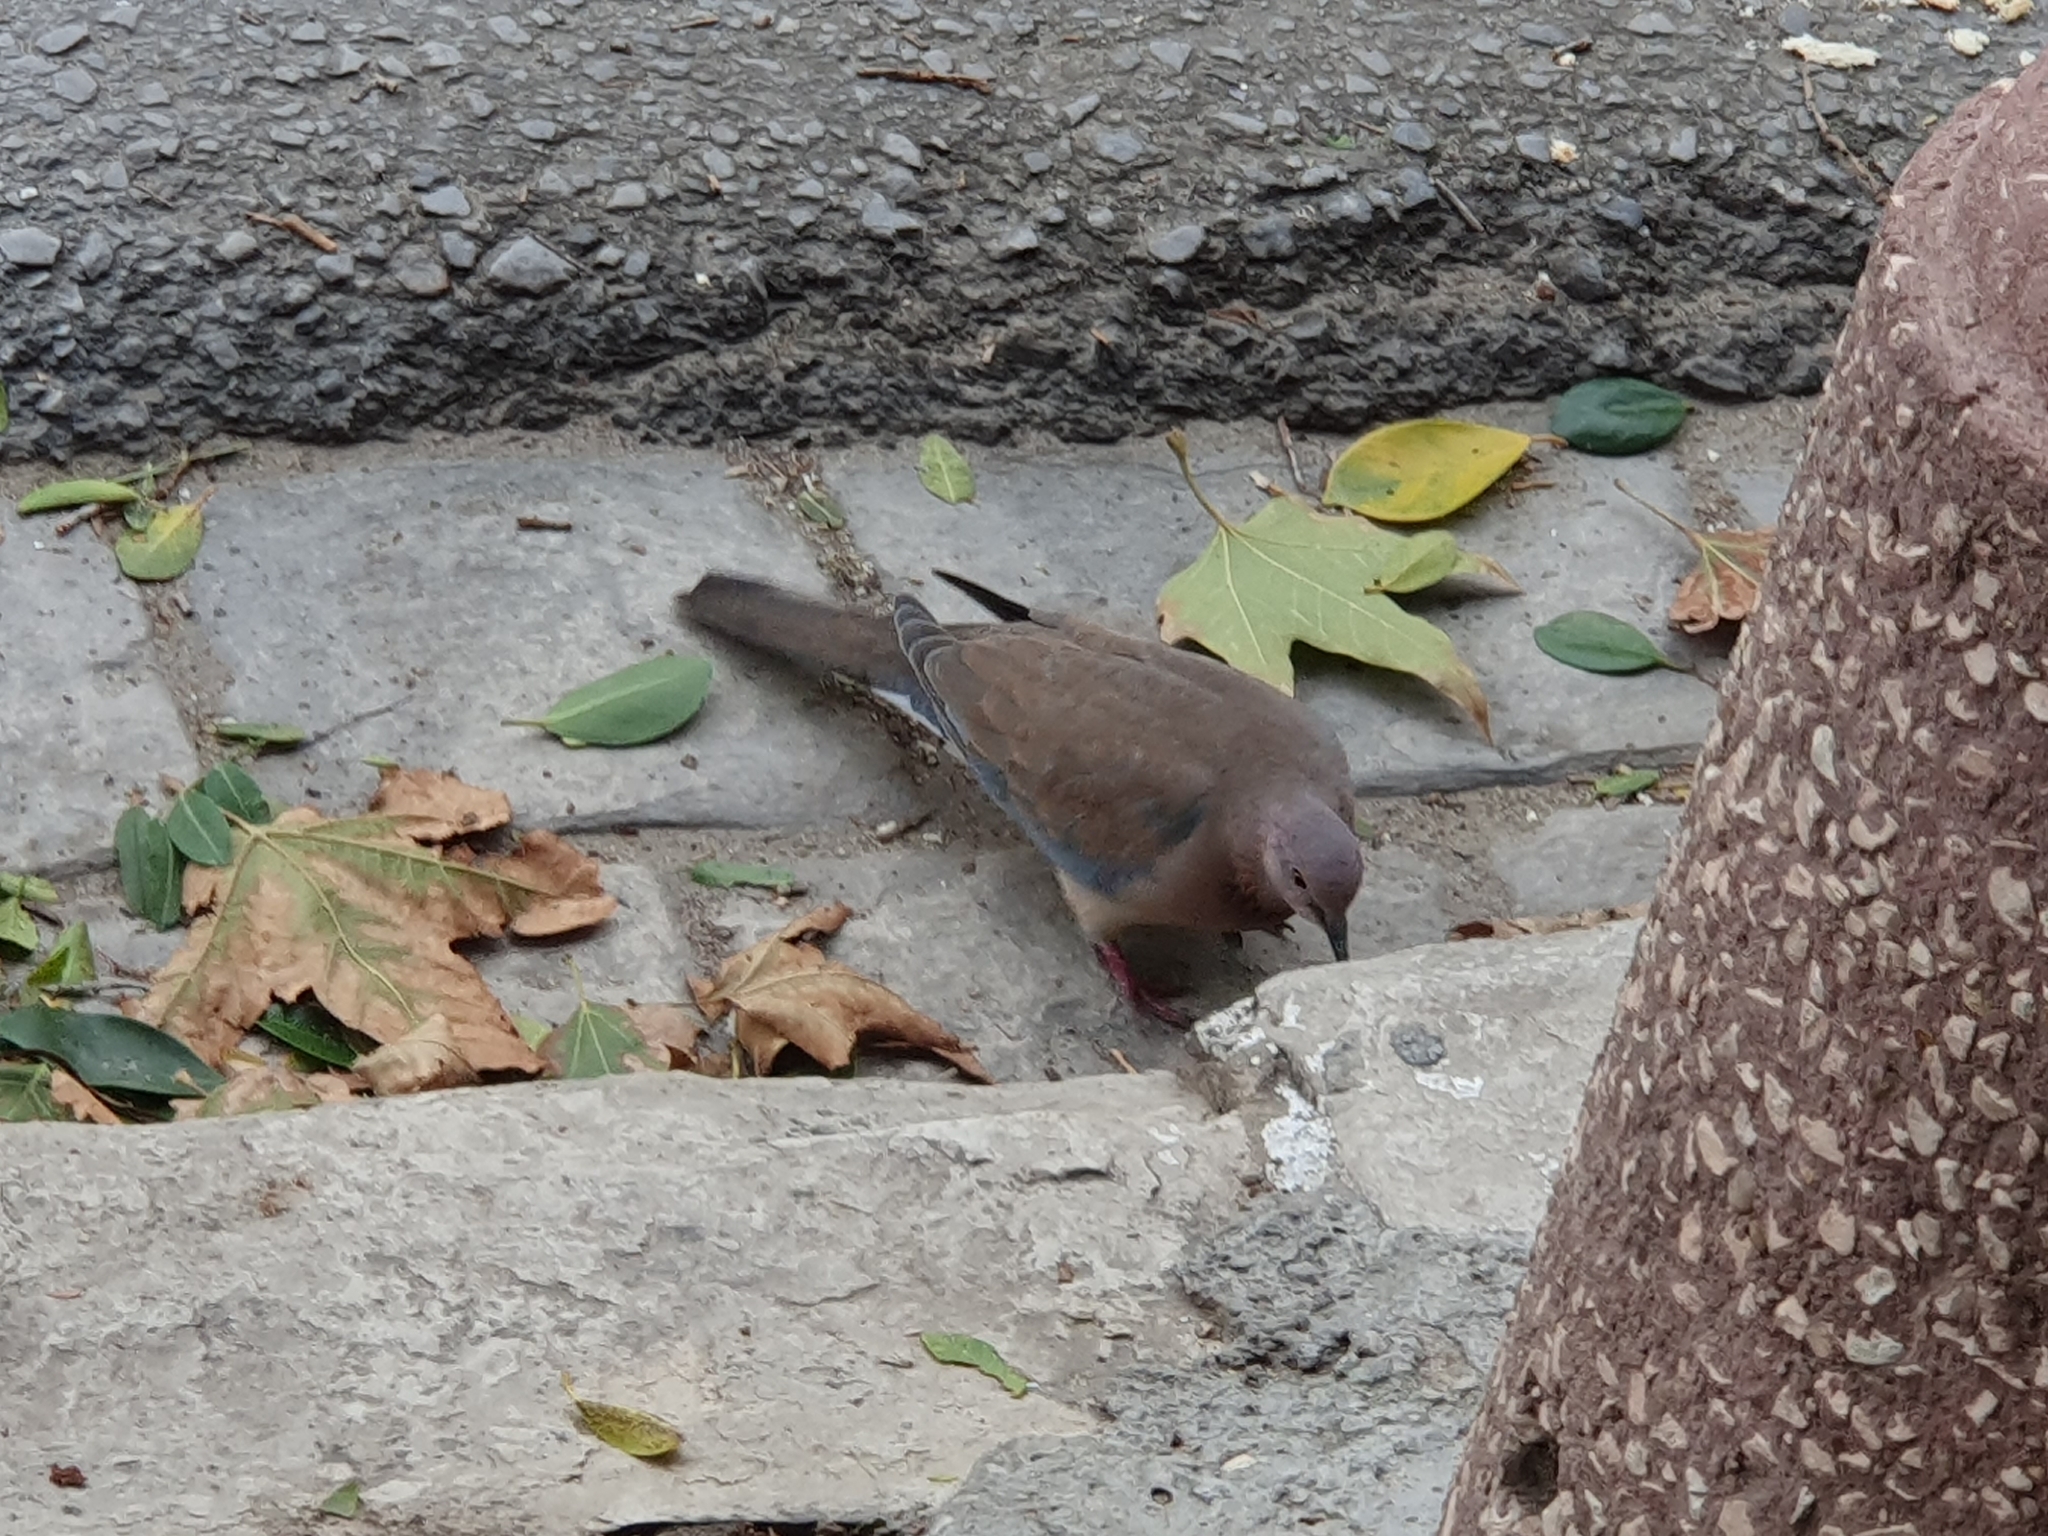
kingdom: Animalia
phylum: Chordata
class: Aves
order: Columbiformes
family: Columbidae
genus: Spilopelia
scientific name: Spilopelia senegalensis
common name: Laughing dove
